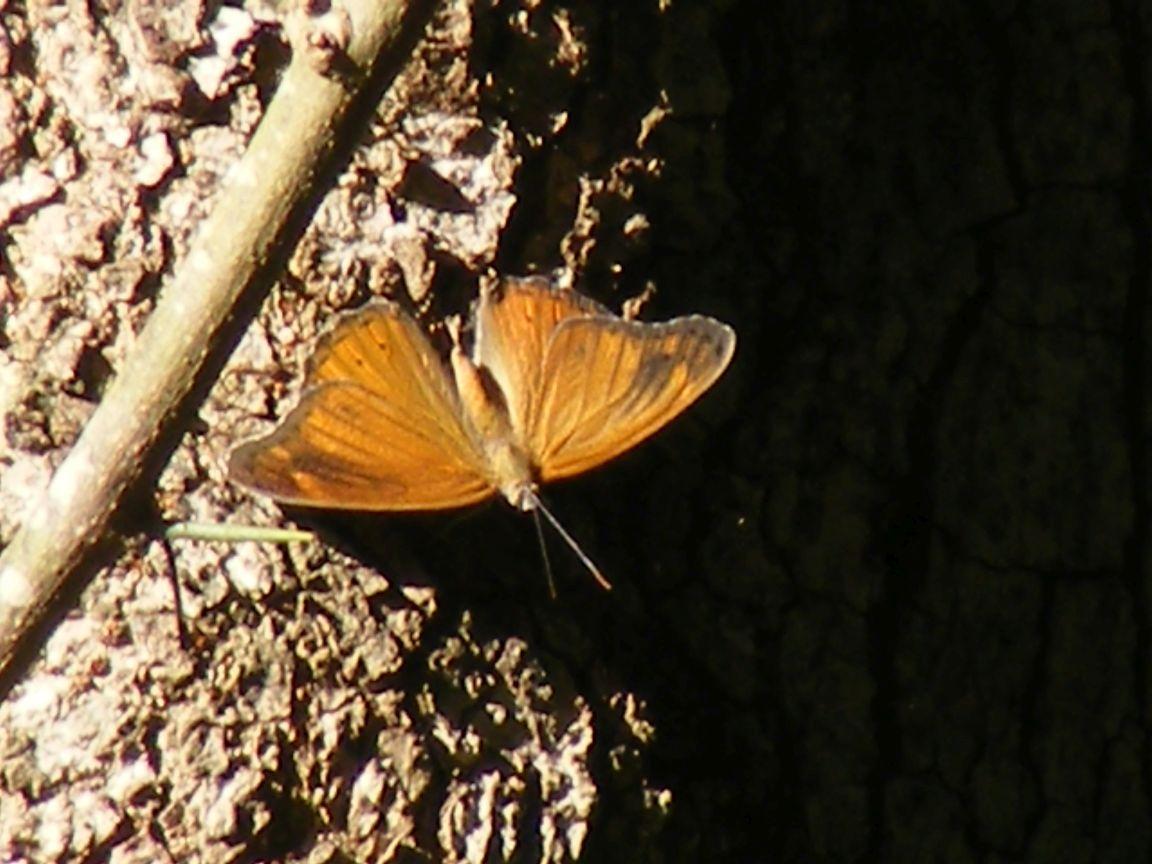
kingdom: Animalia
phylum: Arthropoda
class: Insecta
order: Lepidoptera
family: Nymphalidae
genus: Sallya
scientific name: Sallya natalensis
